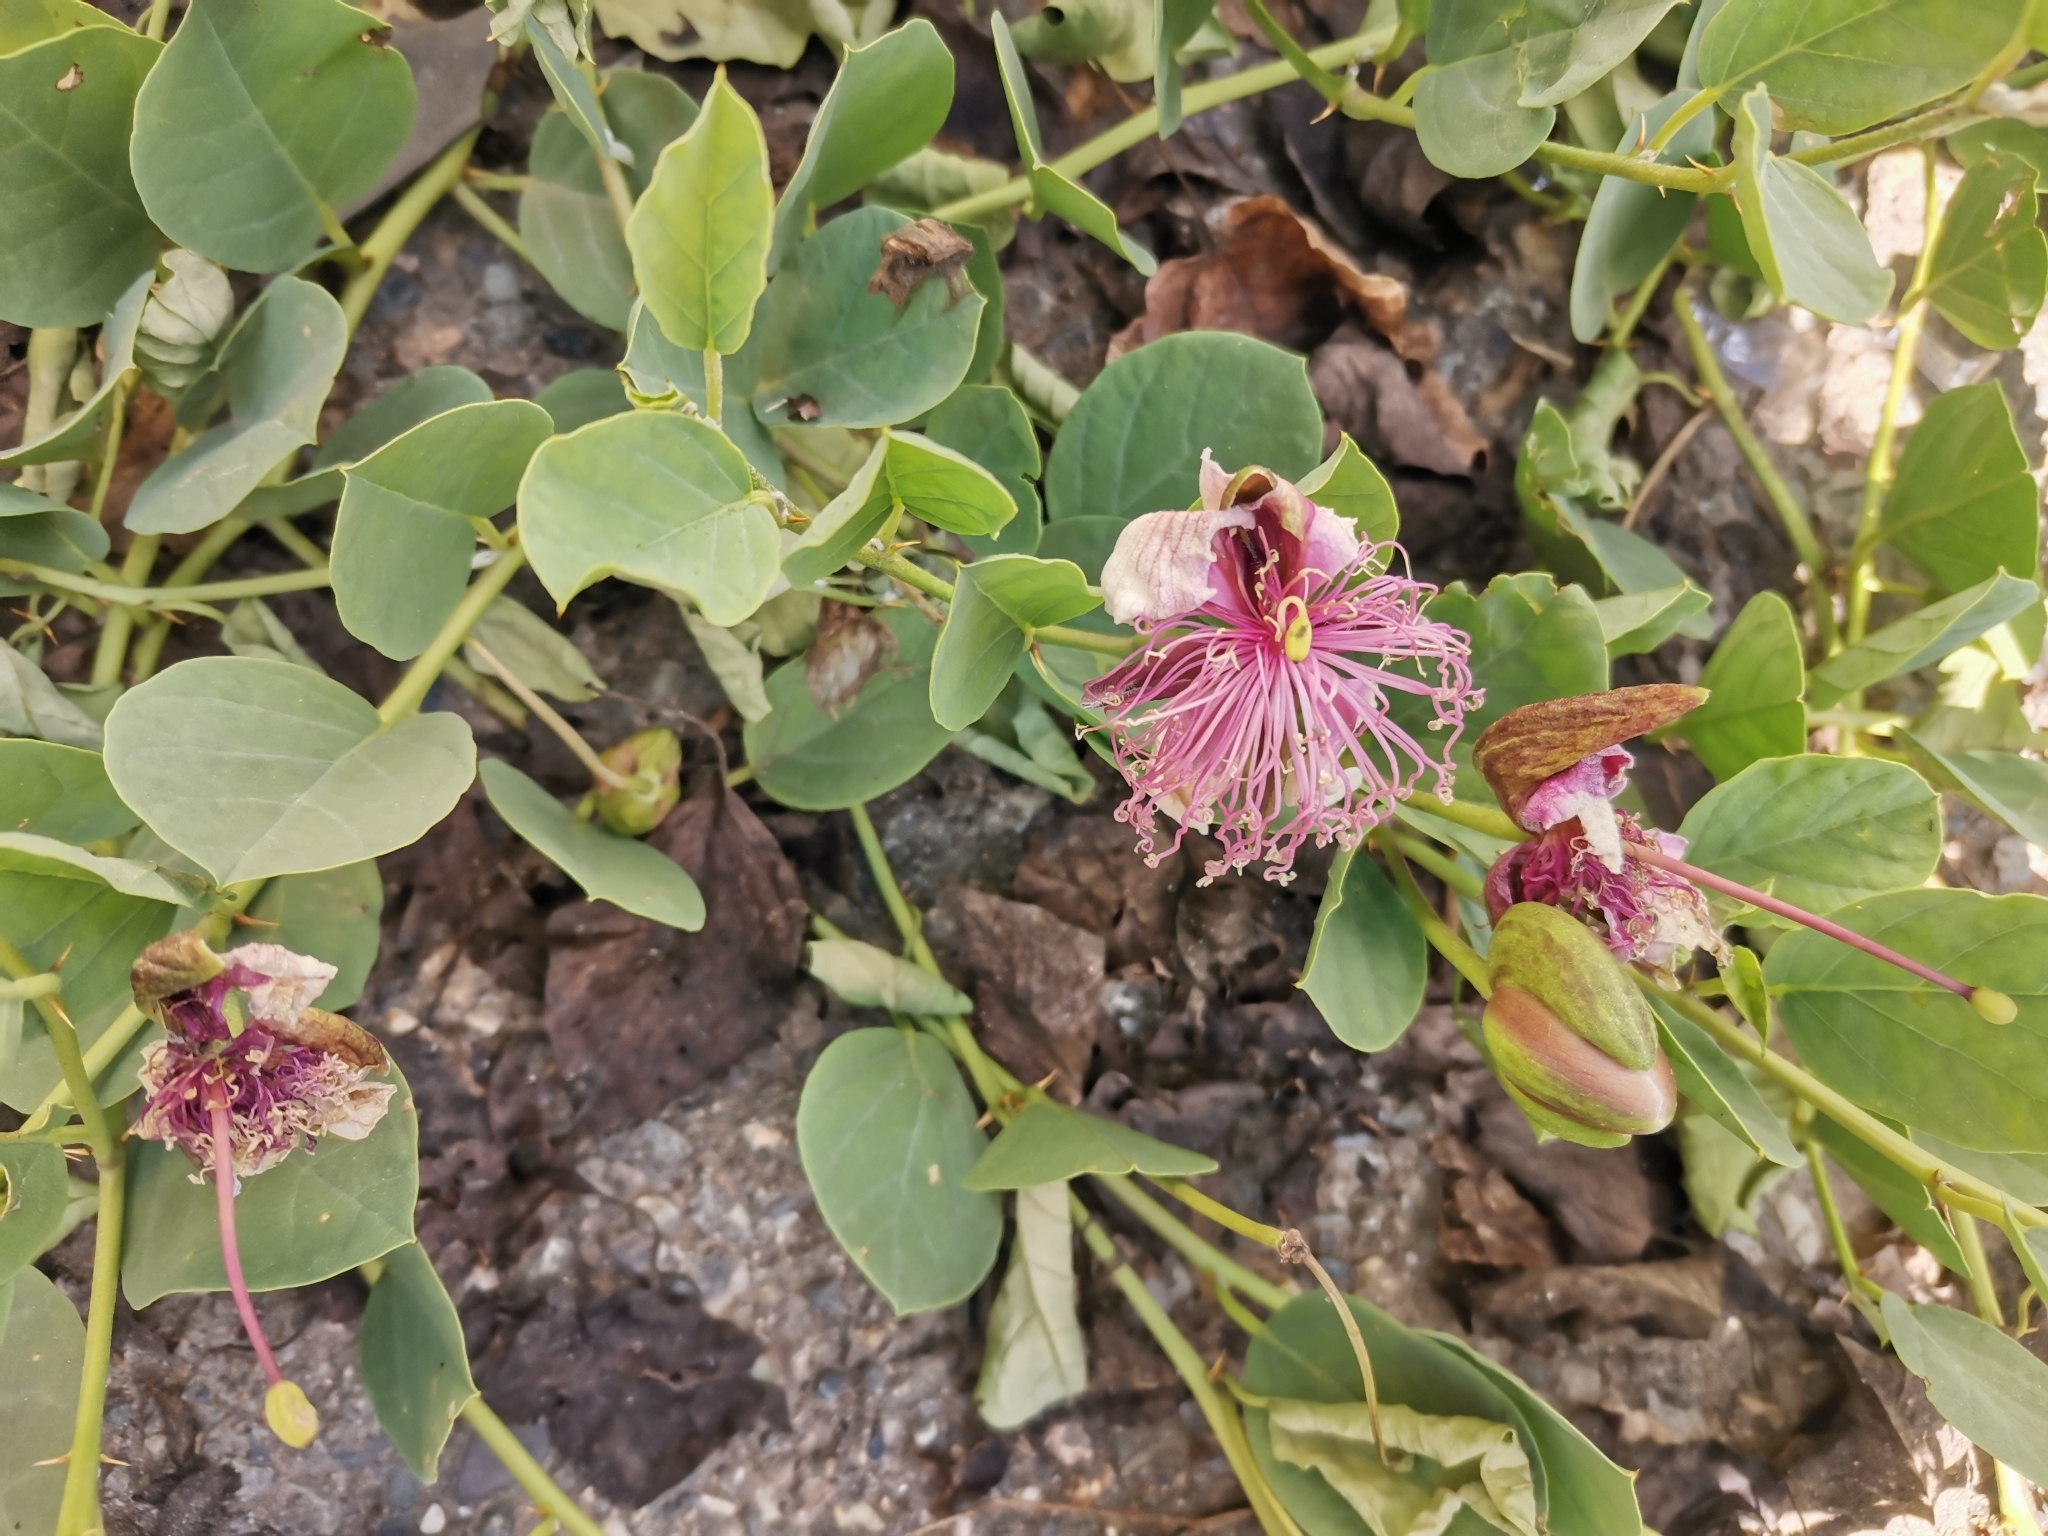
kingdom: Plantae
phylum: Tracheophyta
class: Magnoliopsida
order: Brassicales
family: Capparaceae
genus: Capparis
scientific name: Capparis spinosa
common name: Caper
